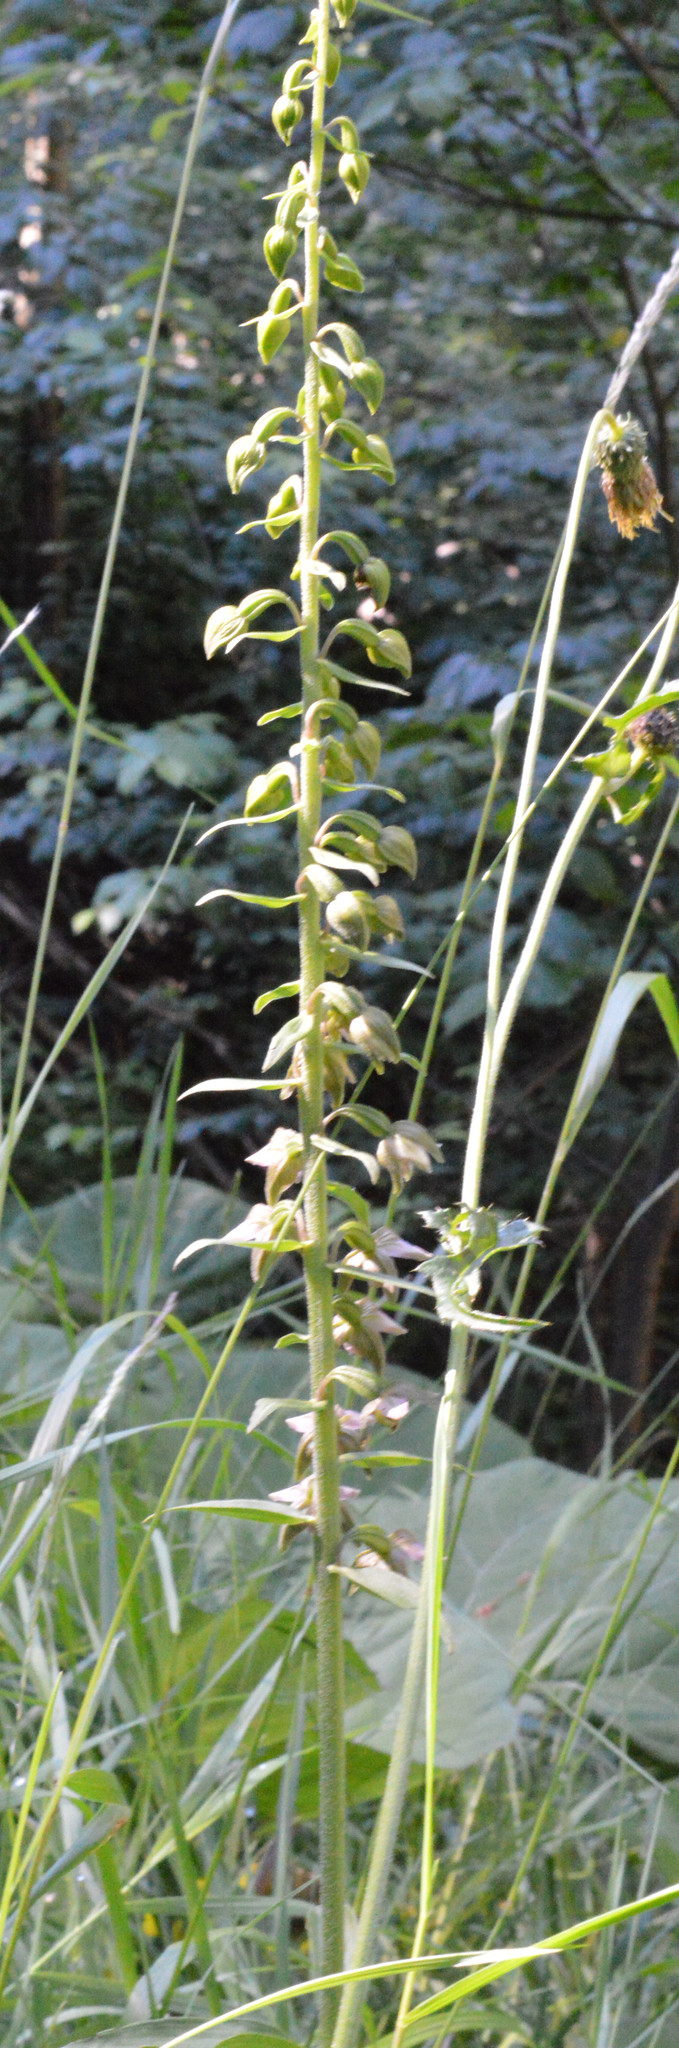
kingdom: Plantae
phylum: Tracheophyta
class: Liliopsida
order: Asparagales
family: Orchidaceae
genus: Epipactis
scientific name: Epipactis helleborine
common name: Broad-leaved helleborine
